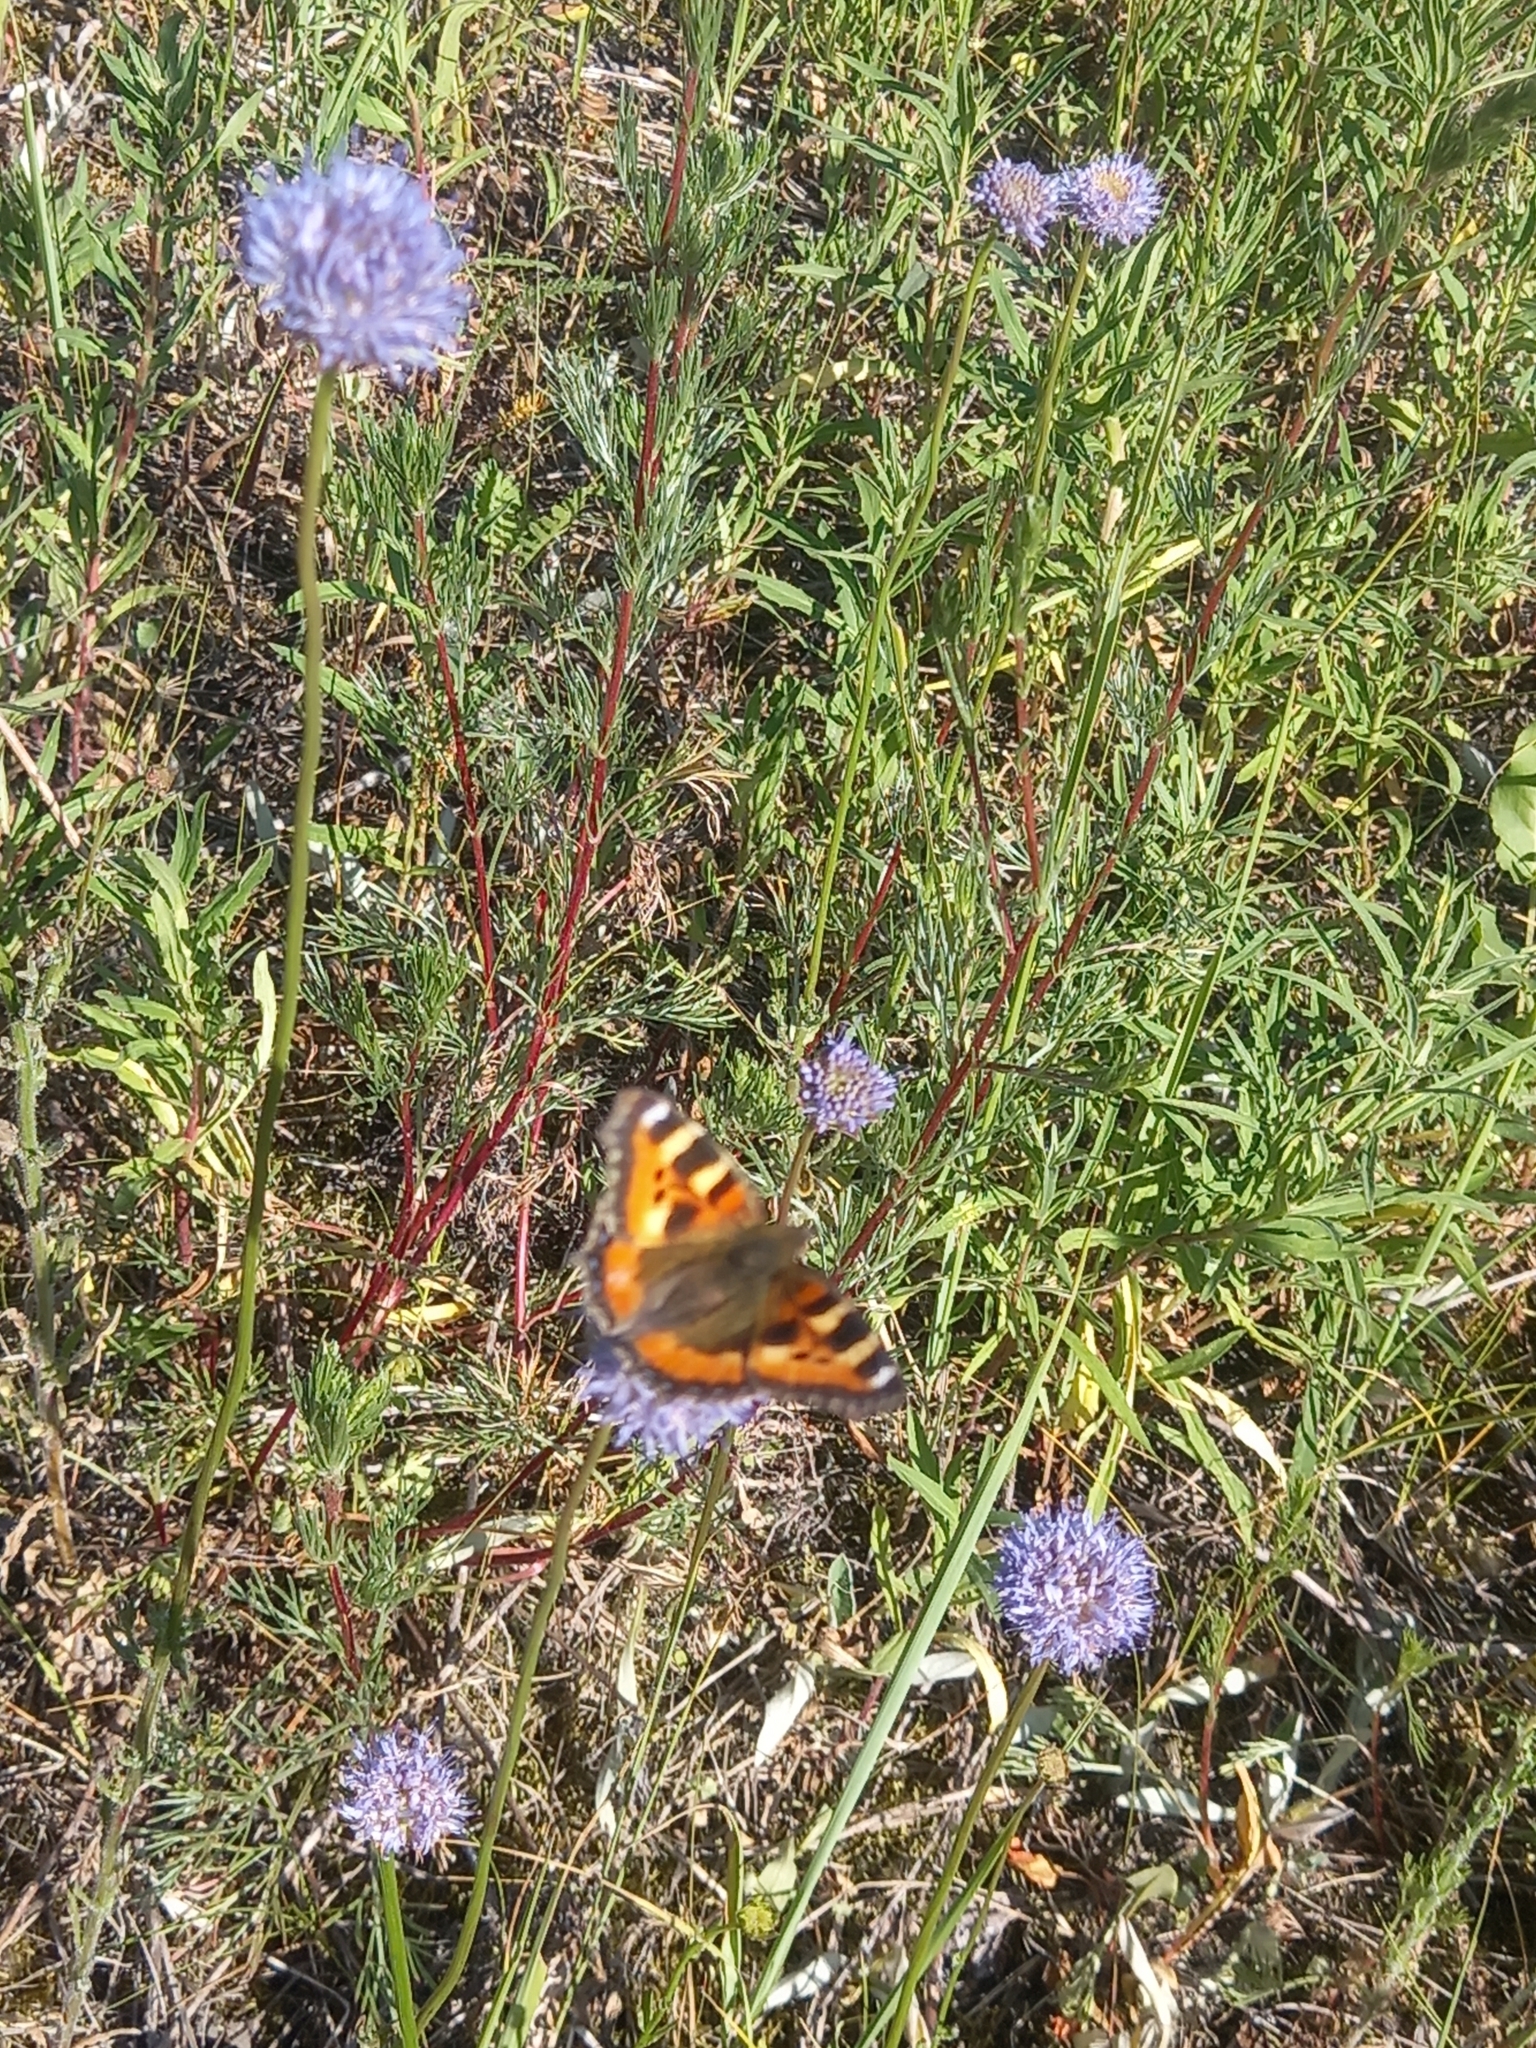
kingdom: Animalia
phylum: Arthropoda
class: Insecta
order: Lepidoptera
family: Nymphalidae
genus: Aglais
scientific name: Aglais urticae
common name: Small tortoiseshell
